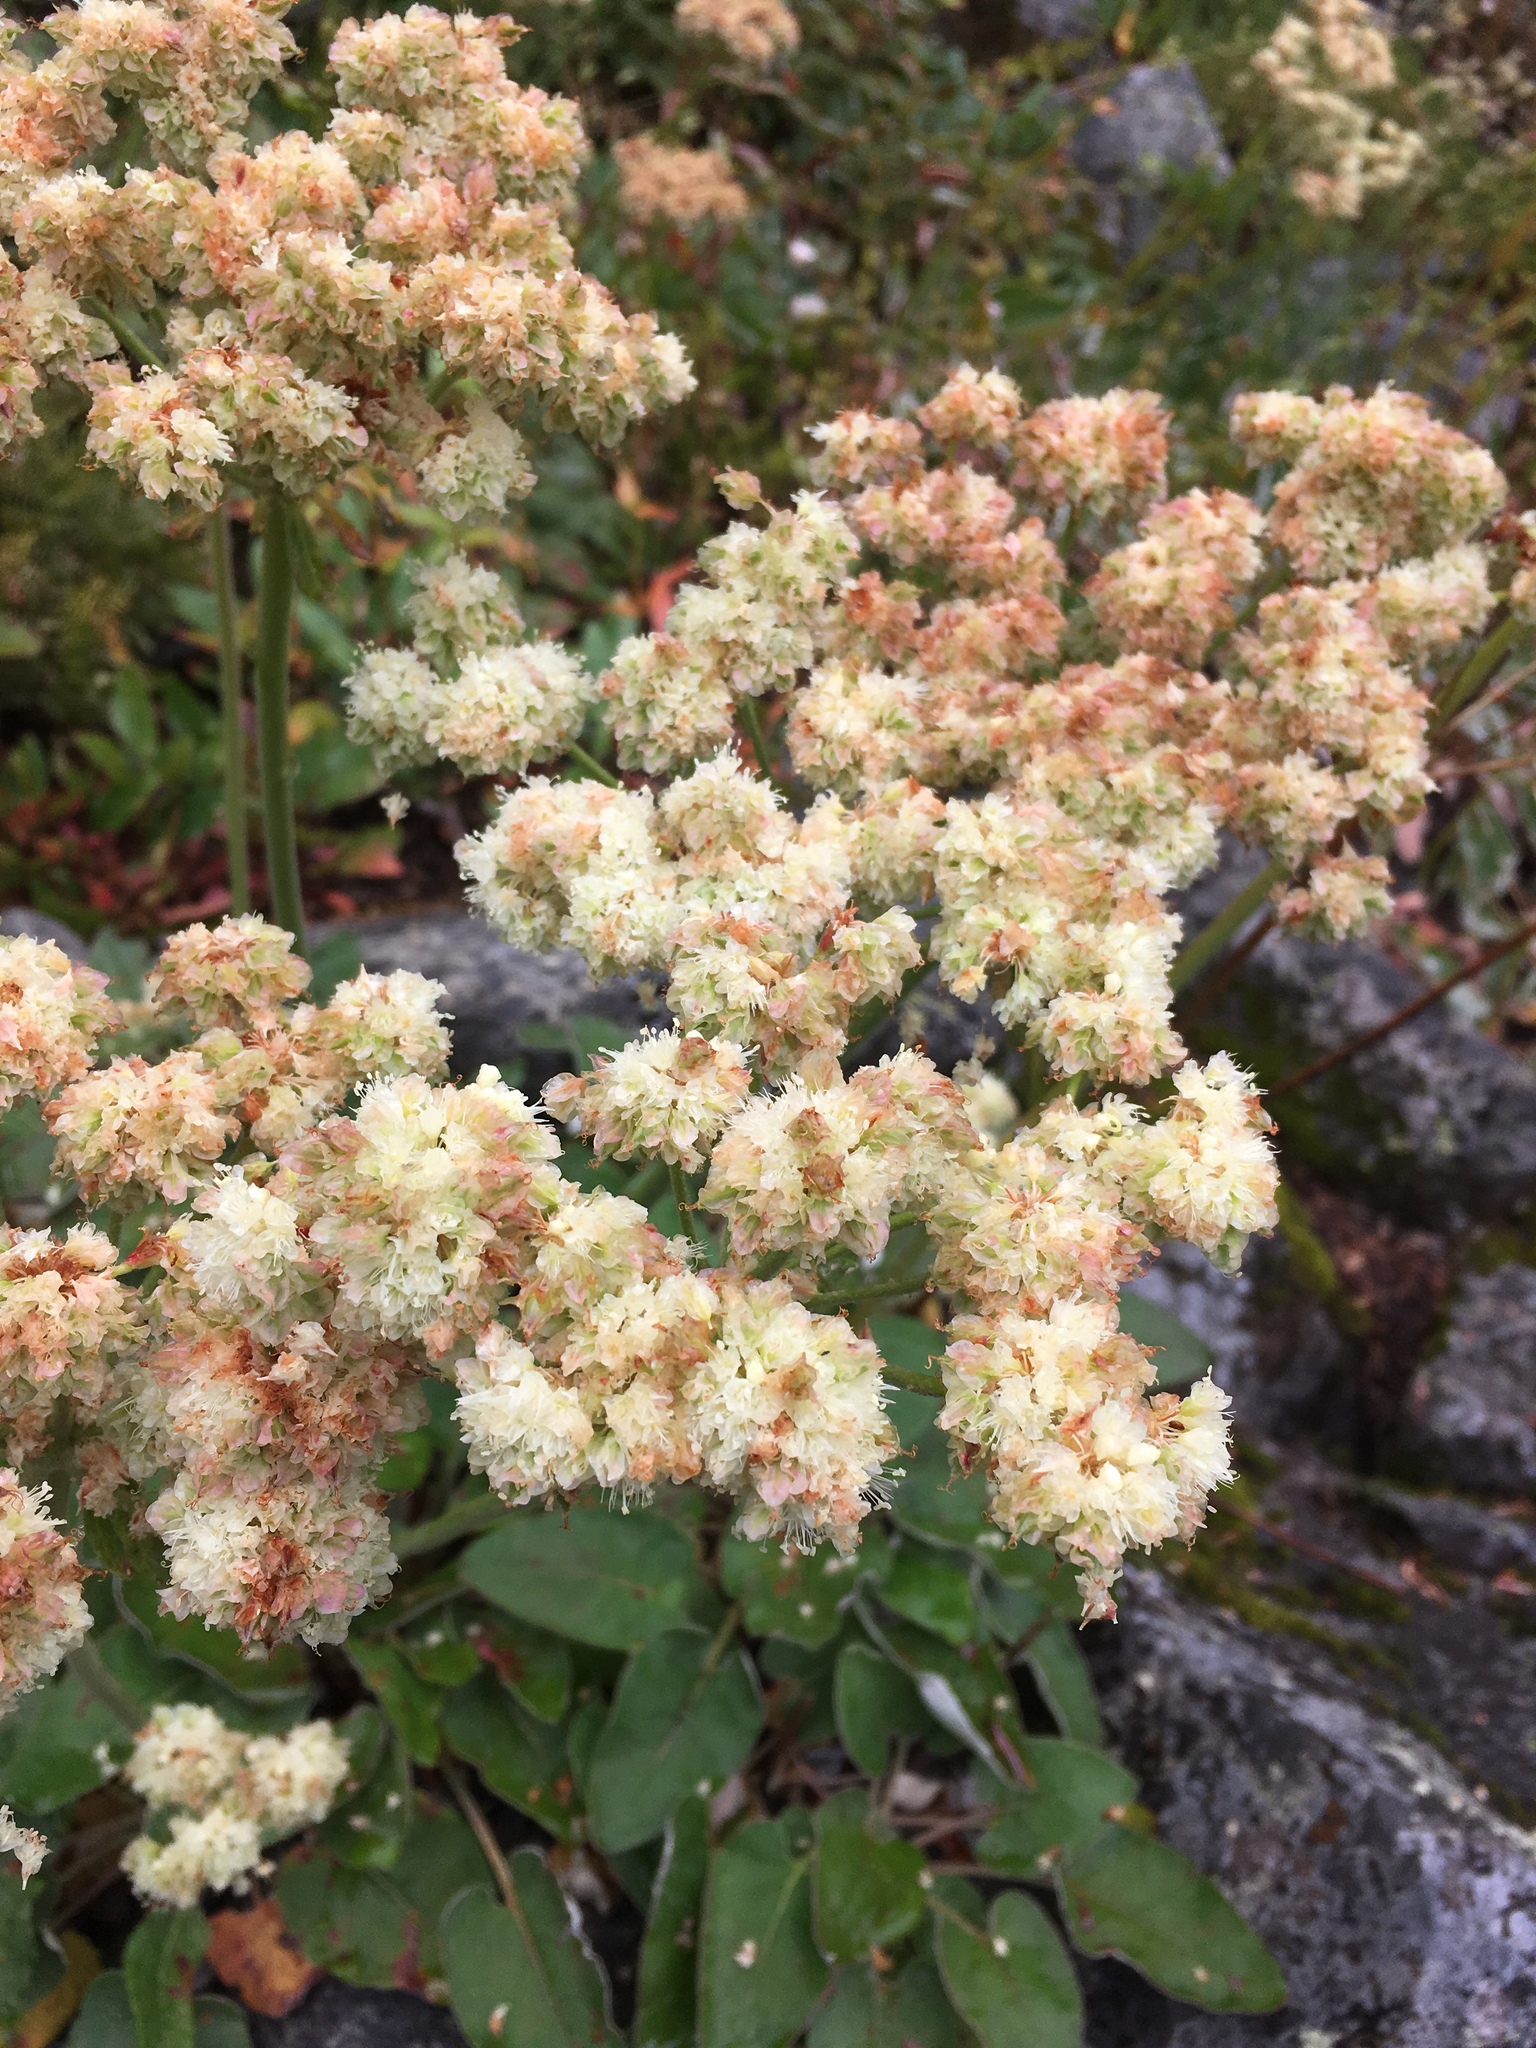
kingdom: Plantae
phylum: Tracheophyta
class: Magnoliopsida
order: Caryophyllales
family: Polygonaceae
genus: Eriogonum
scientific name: Eriogonum compositum
